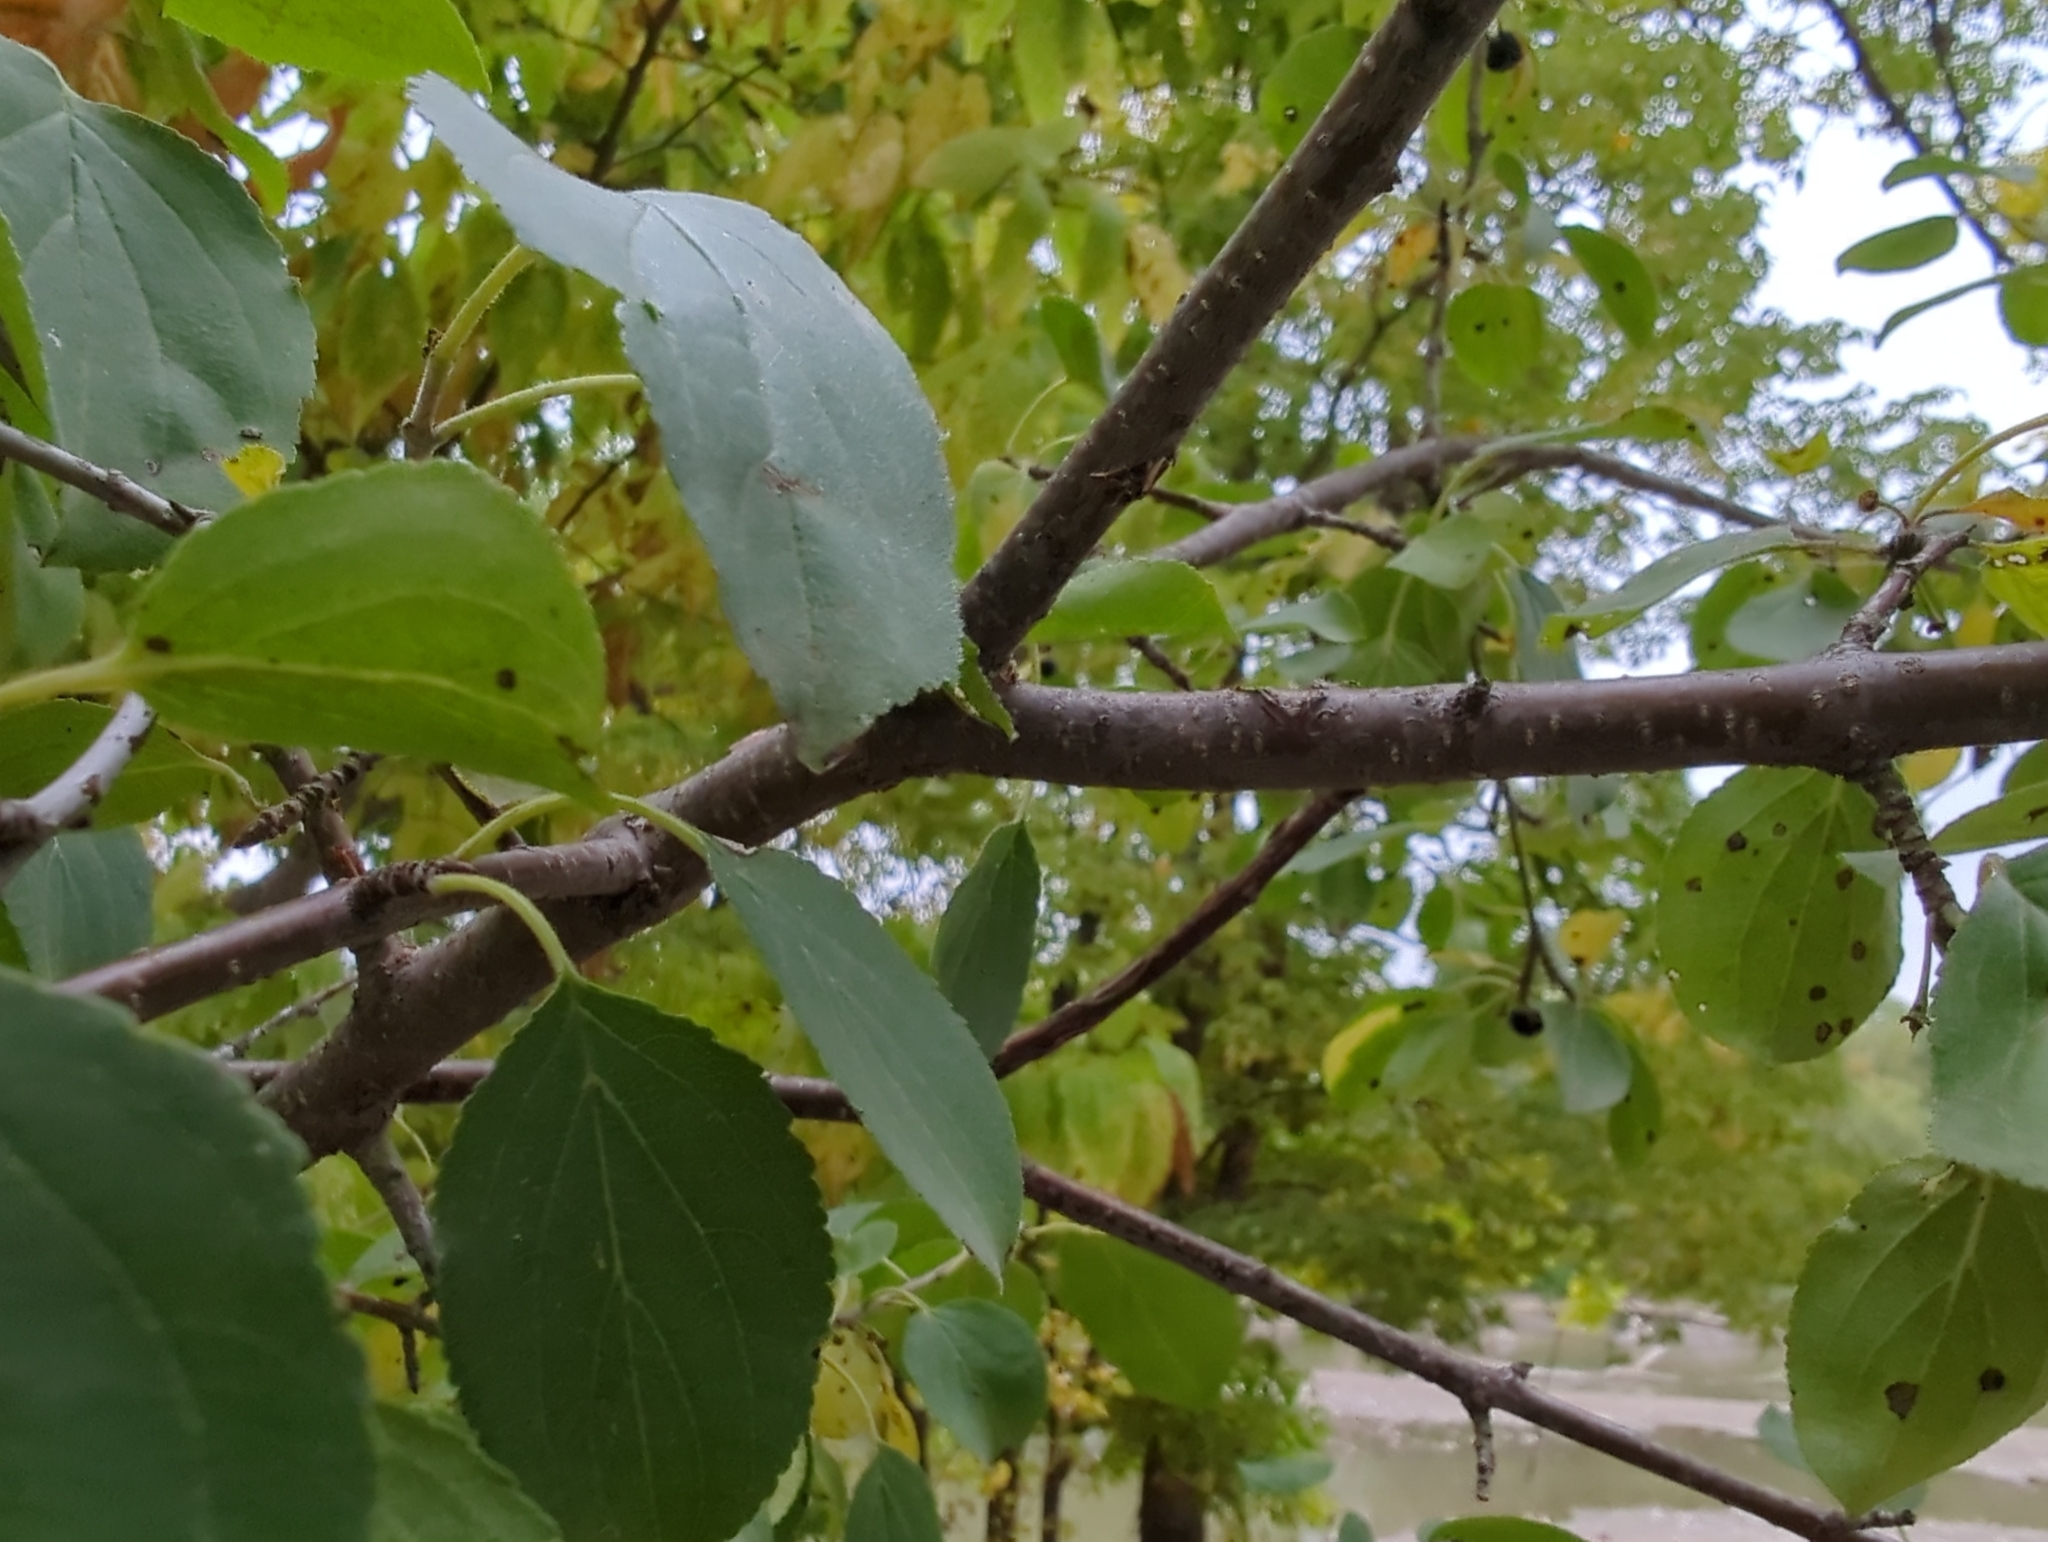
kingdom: Plantae
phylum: Tracheophyta
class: Magnoliopsida
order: Rosales
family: Rhamnaceae
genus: Rhamnus
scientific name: Rhamnus cathartica
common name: Common buckthorn
